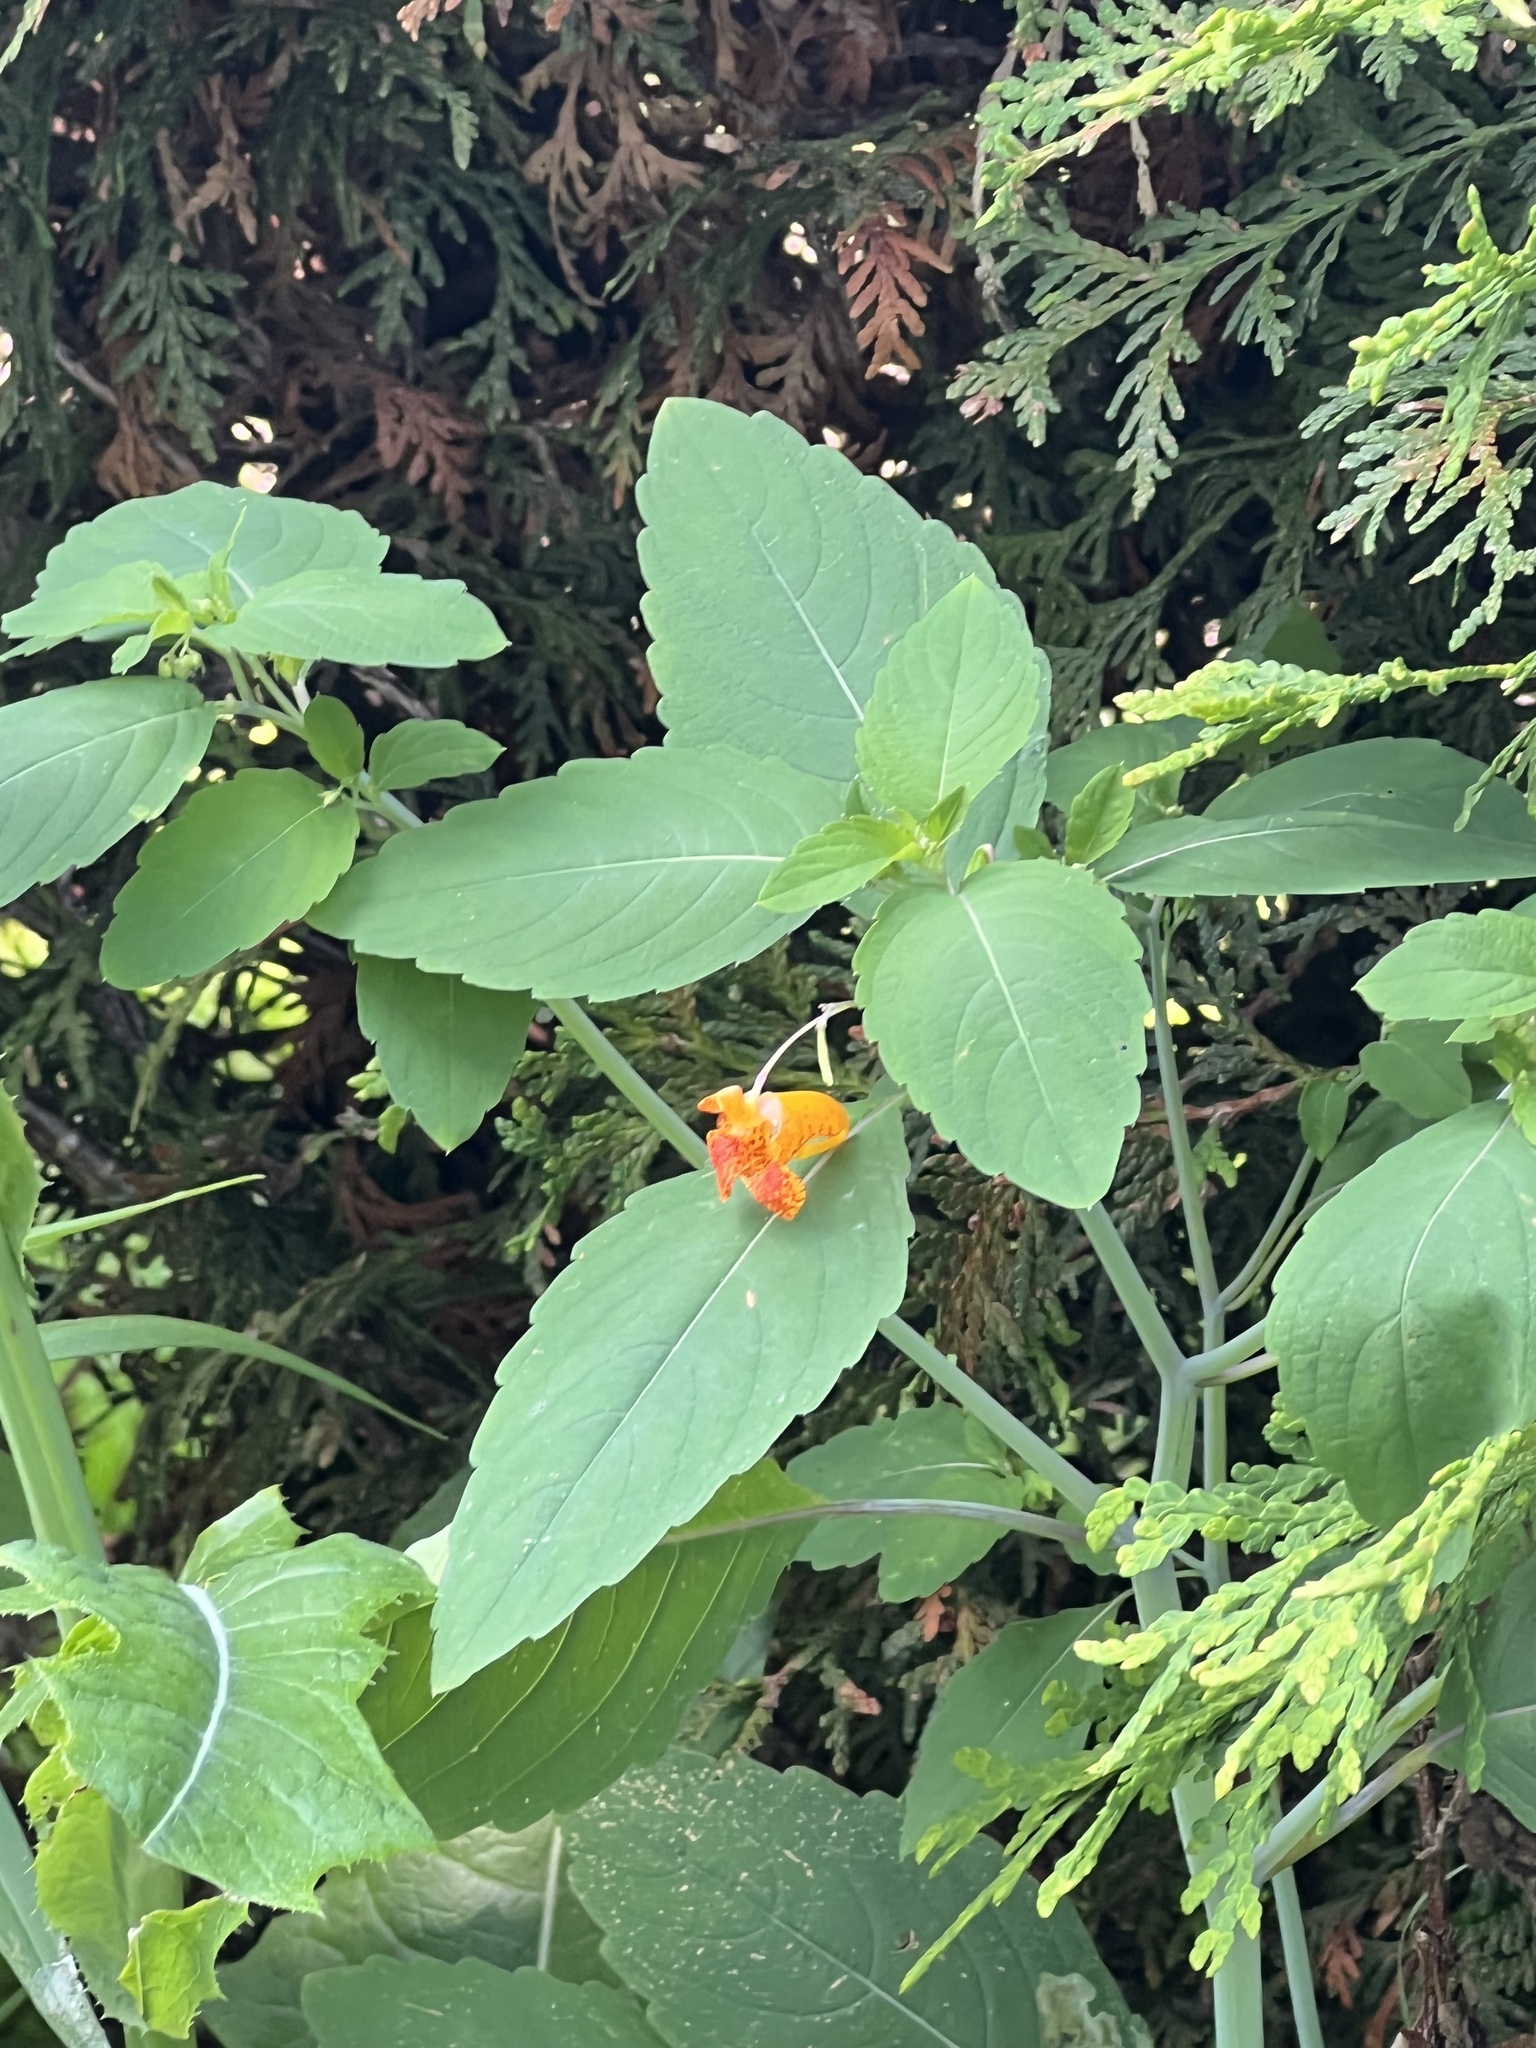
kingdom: Plantae
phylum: Tracheophyta
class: Magnoliopsida
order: Ericales
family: Balsaminaceae
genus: Impatiens
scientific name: Impatiens capensis
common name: Orange balsam
